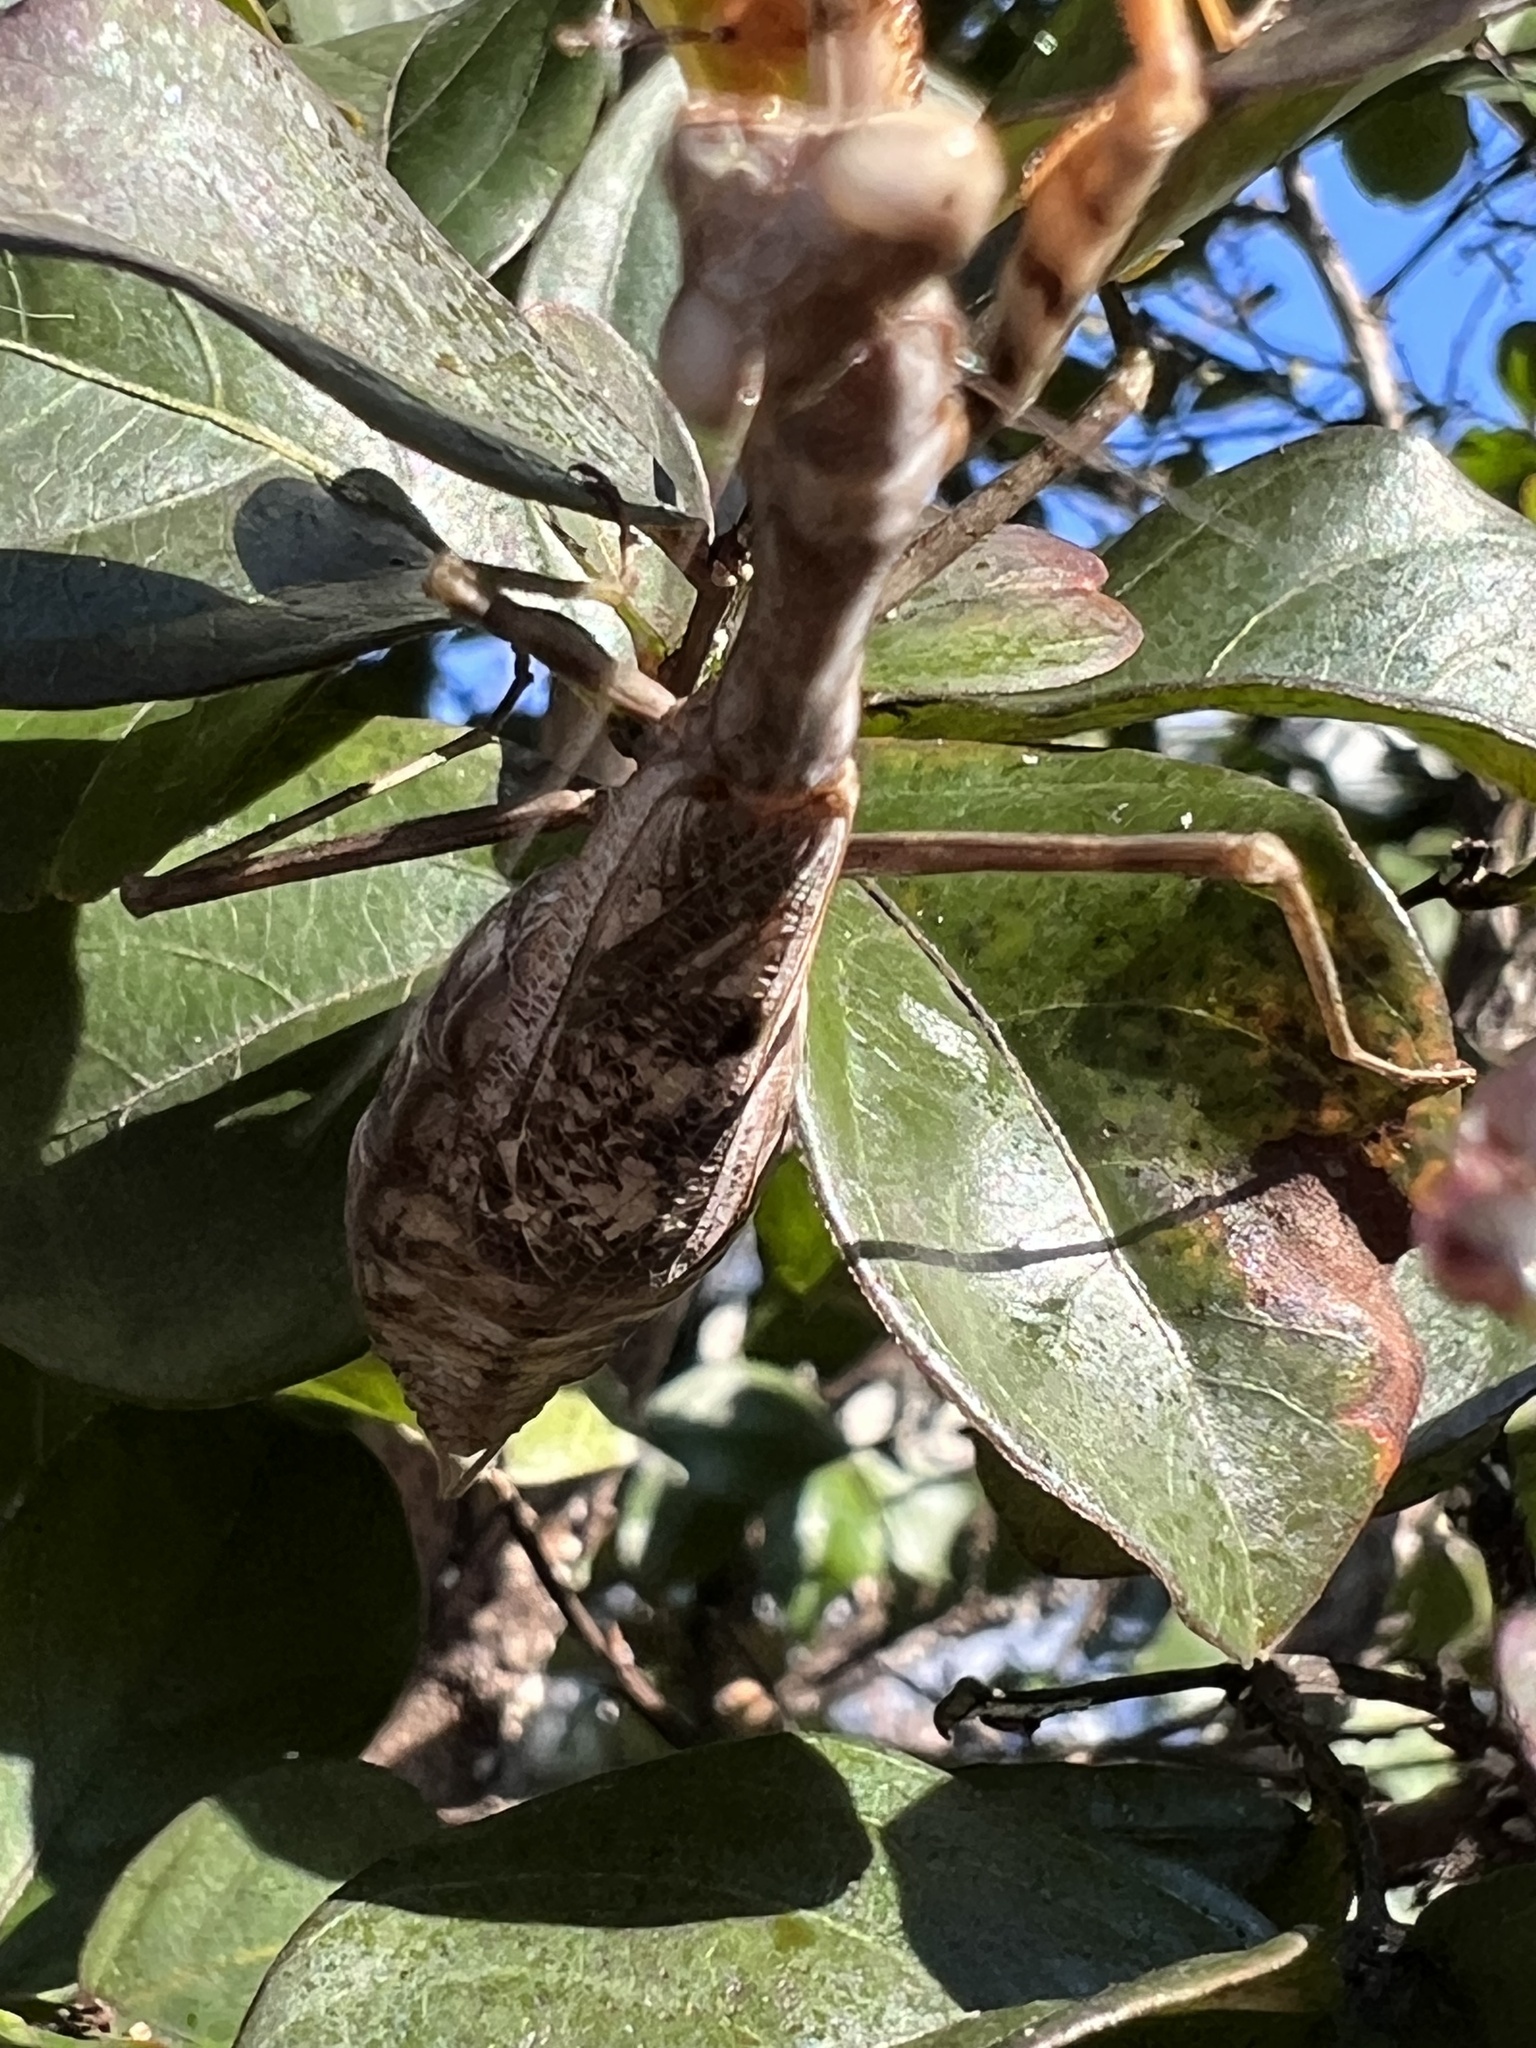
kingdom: Animalia
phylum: Arthropoda
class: Insecta
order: Mantodea
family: Mantidae
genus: Stagmomantis
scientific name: Stagmomantis carolina
